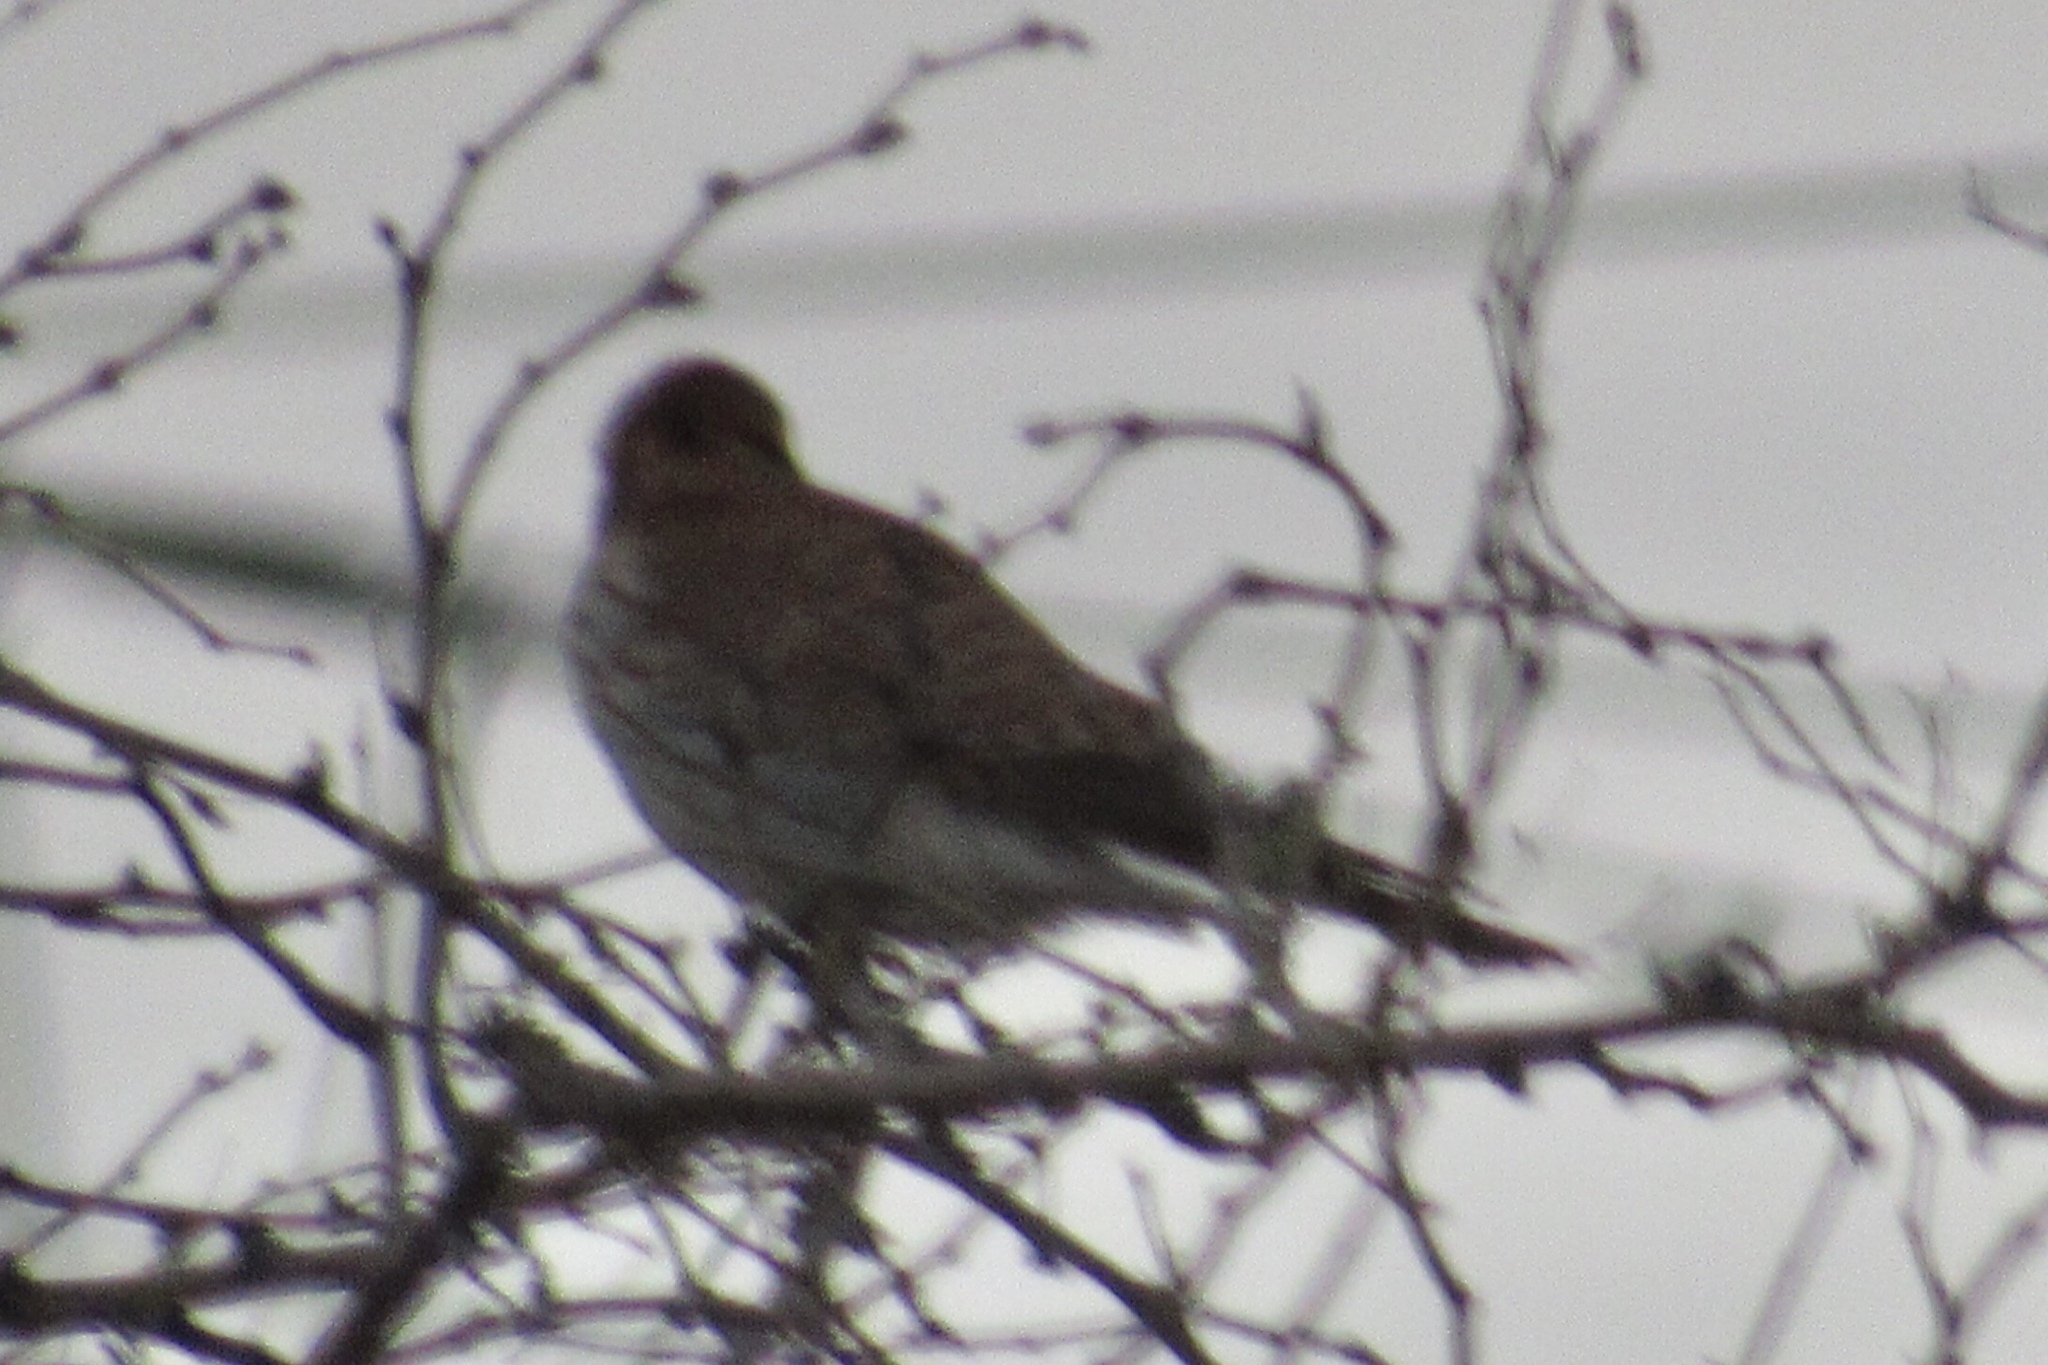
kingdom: Animalia
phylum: Chordata
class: Aves
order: Falconiformes
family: Falconidae
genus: Falco
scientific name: Falco sparverius
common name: American kestrel
